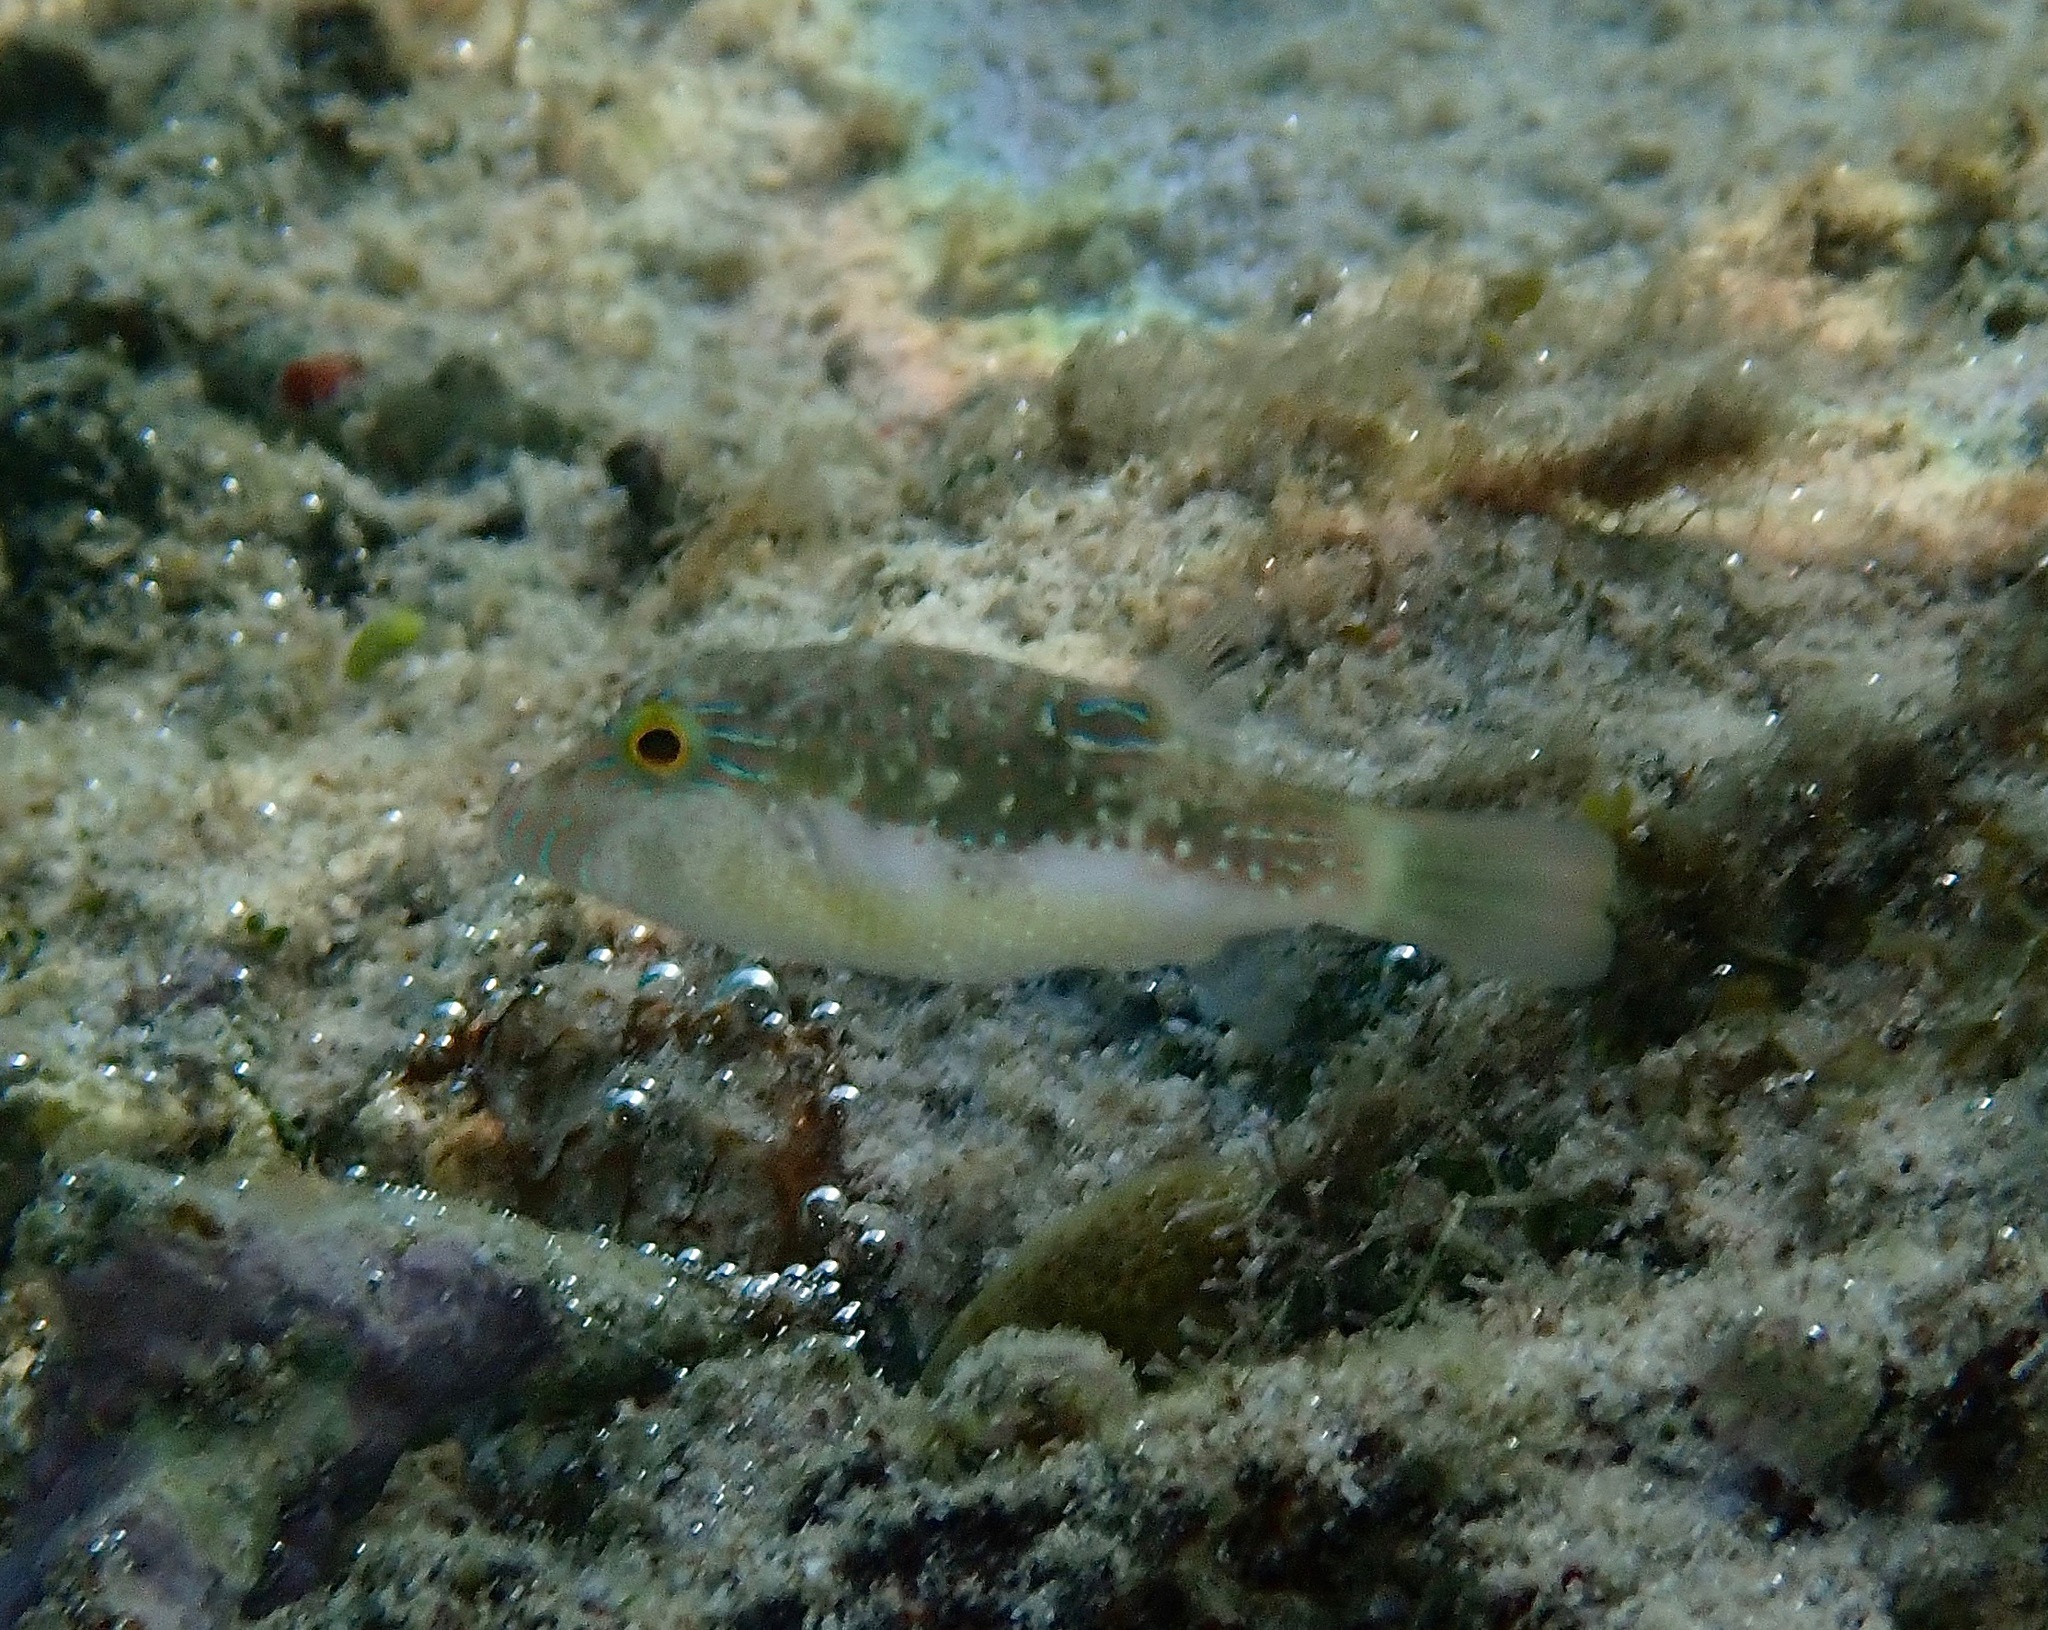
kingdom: Animalia
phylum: Chordata
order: Tetraodontiformes
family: Tetraodontidae
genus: Canthigaster
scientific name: Canthigaster bennetti
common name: Bennett's pufferfish
